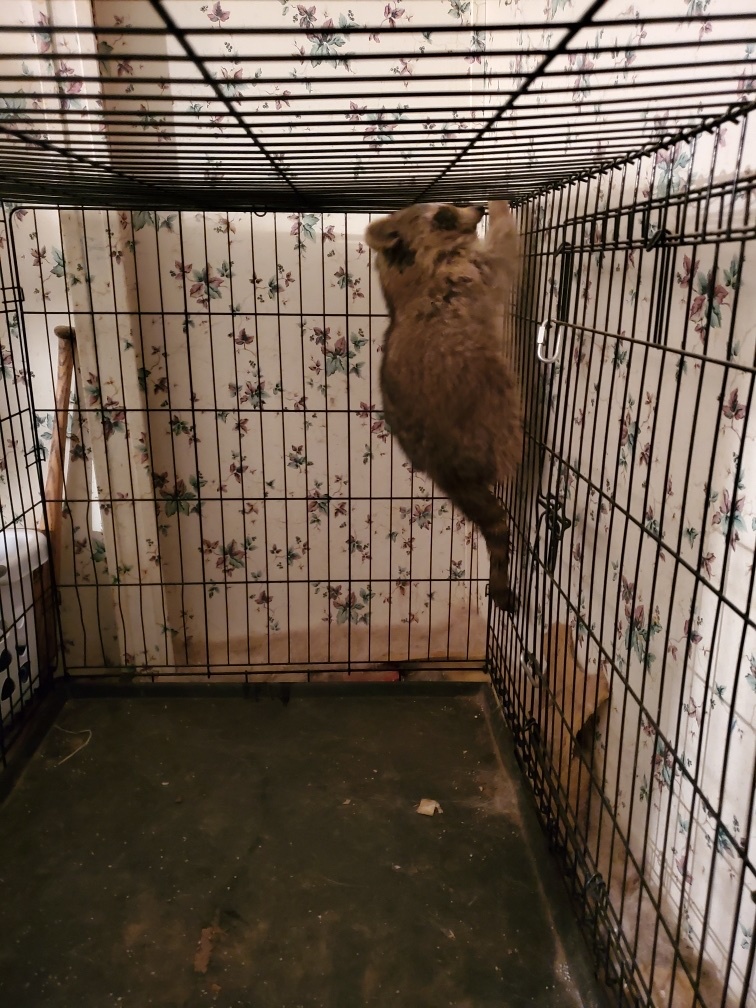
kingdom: Animalia
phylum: Chordata
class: Mammalia
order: Carnivora
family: Procyonidae
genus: Procyon
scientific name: Procyon lotor
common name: Raccoon
